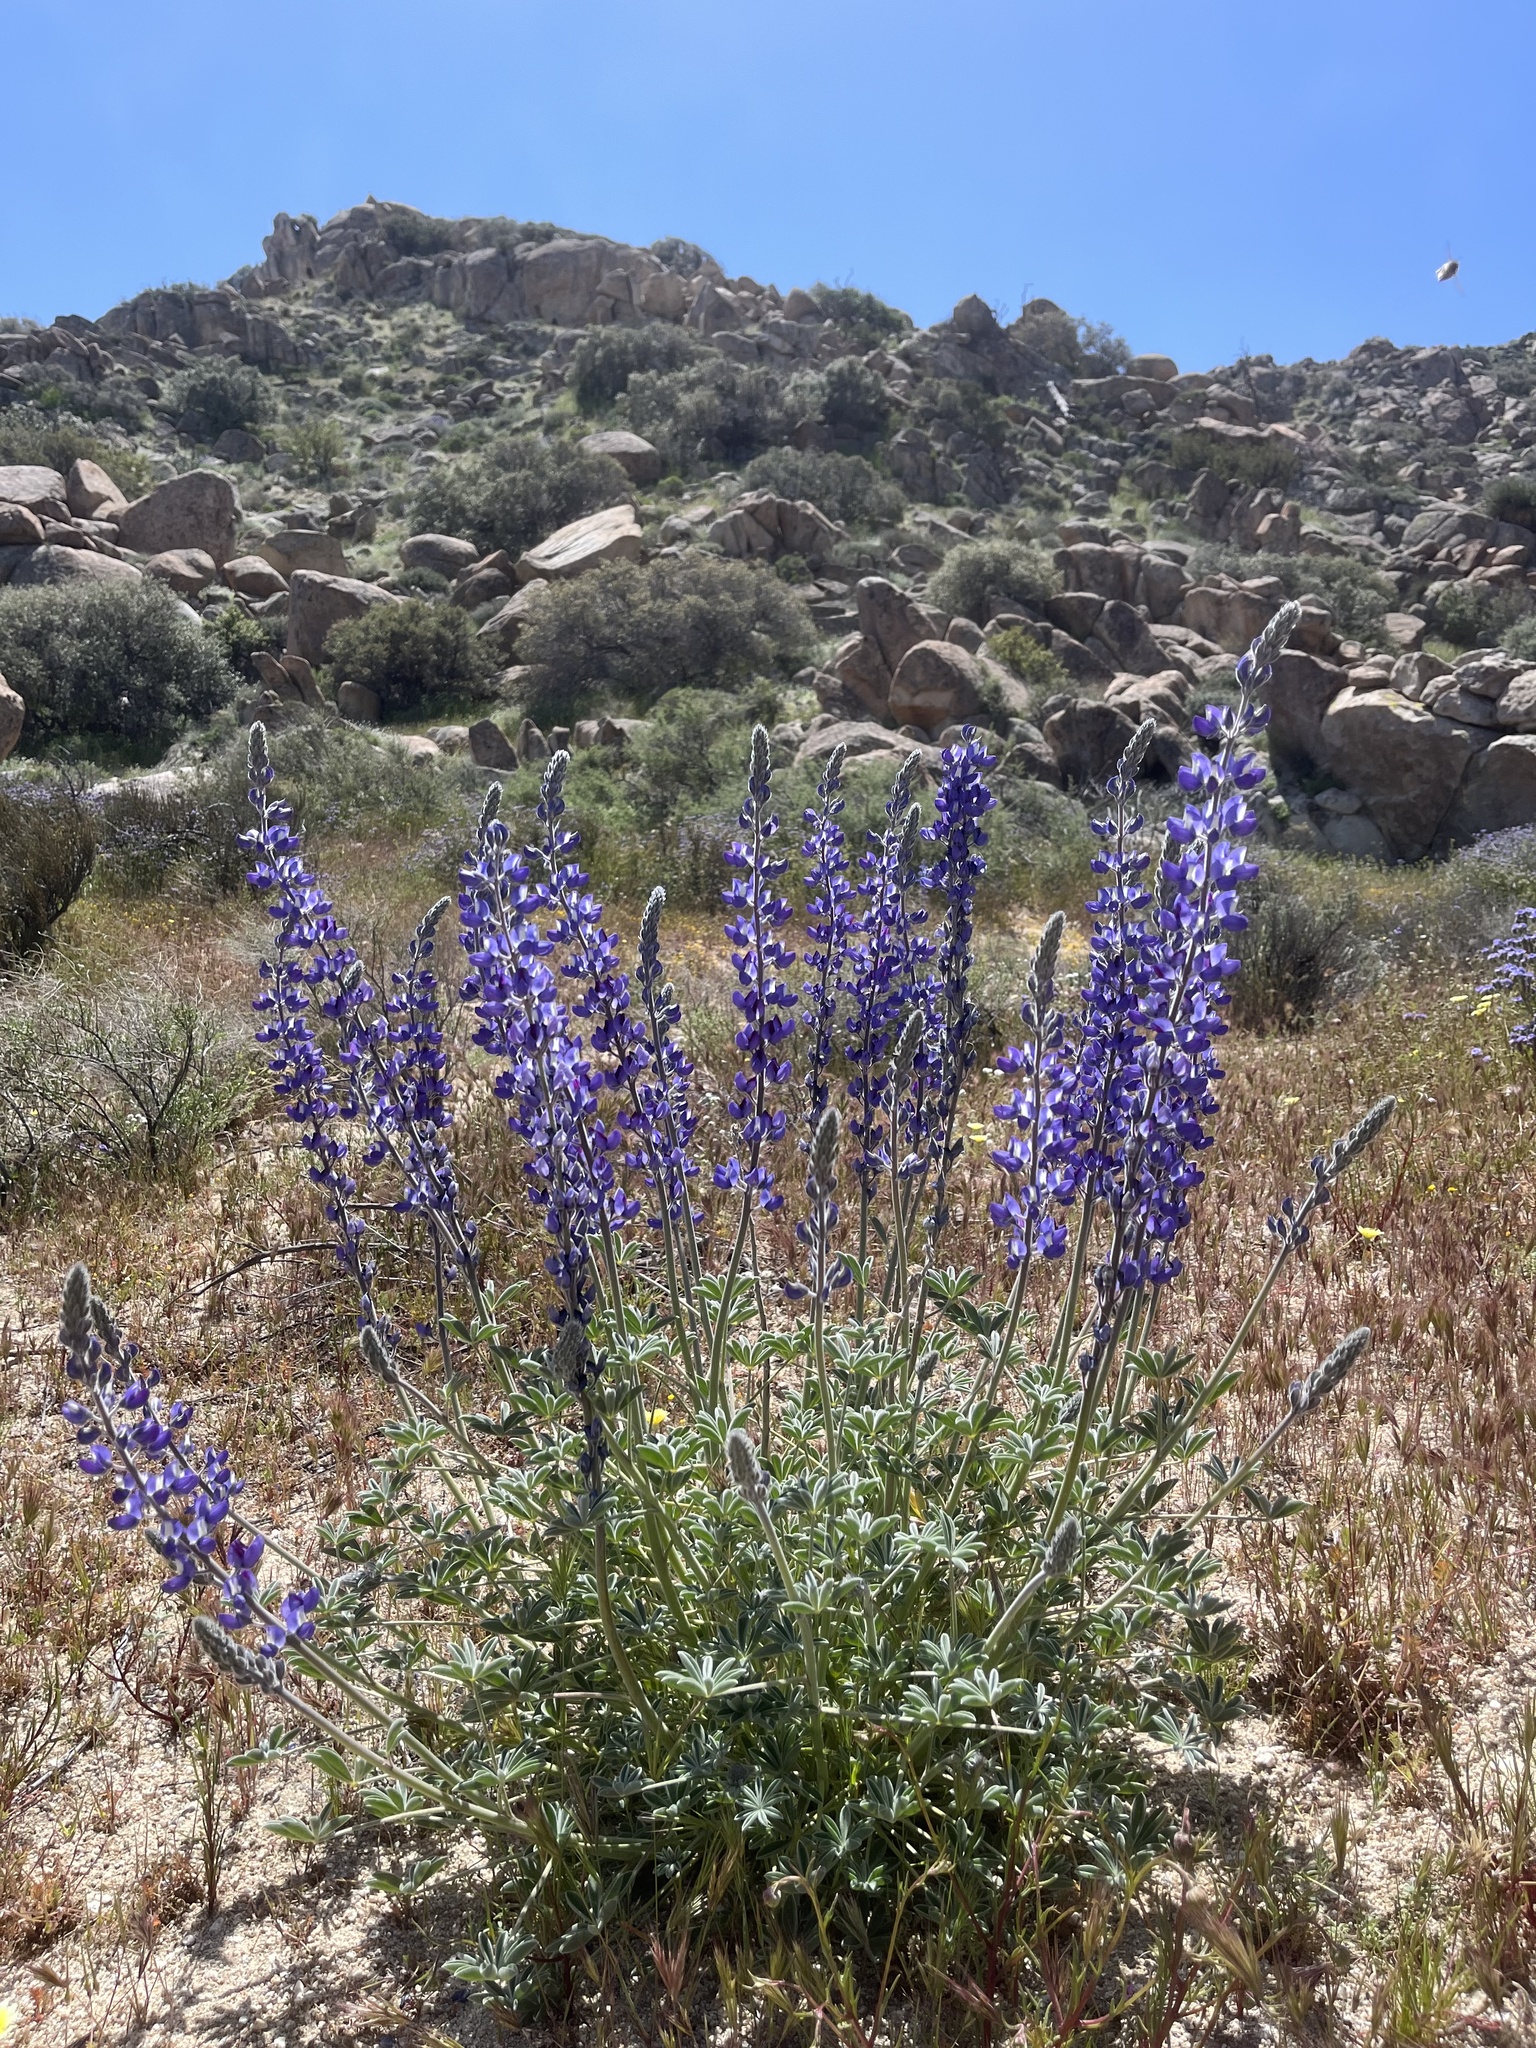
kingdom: Plantae
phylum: Tracheophyta
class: Magnoliopsida
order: Fabales
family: Fabaceae
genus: Lupinus
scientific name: Lupinus excubitus
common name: Grape soda lupine
